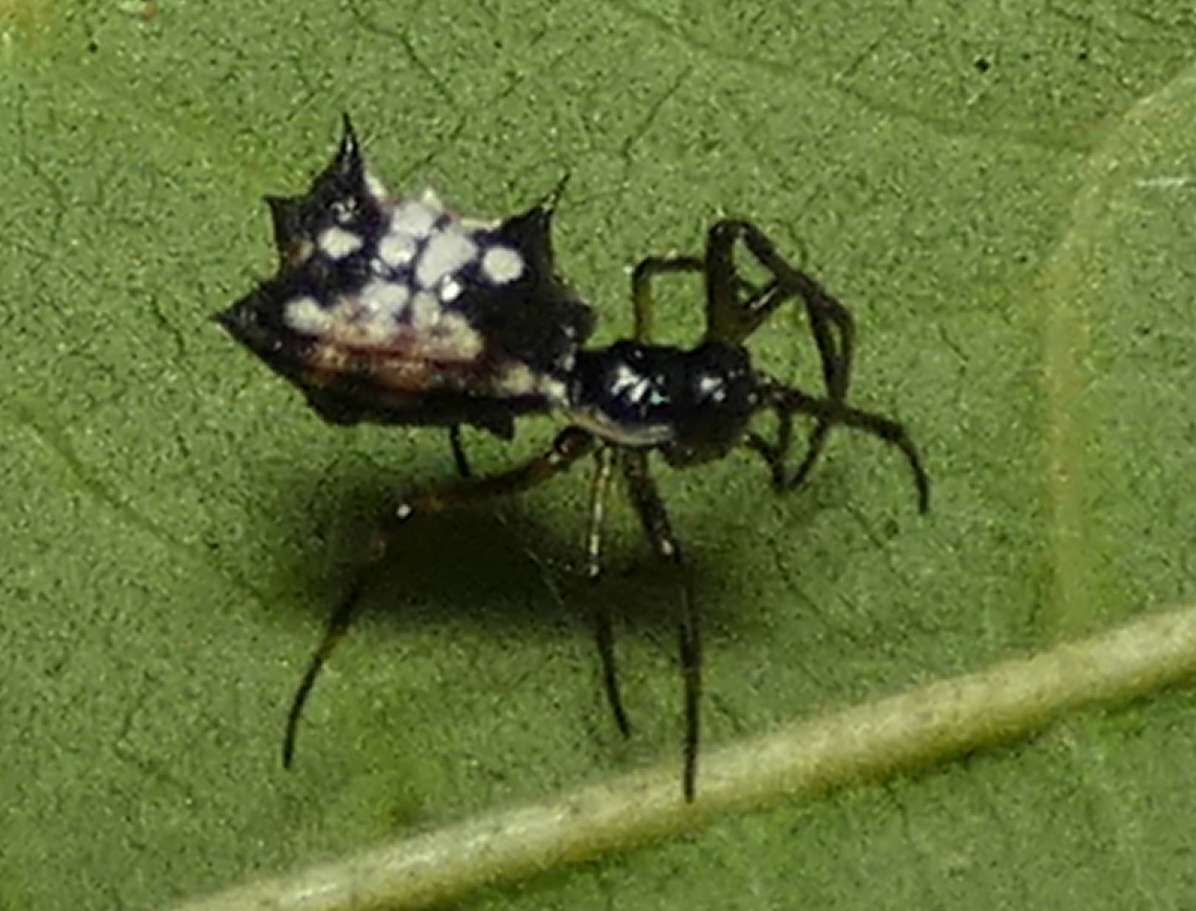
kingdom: Animalia
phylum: Arthropoda
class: Arachnida
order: Araneae
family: Araneidae
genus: Micrathena
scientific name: Micrathena picta
